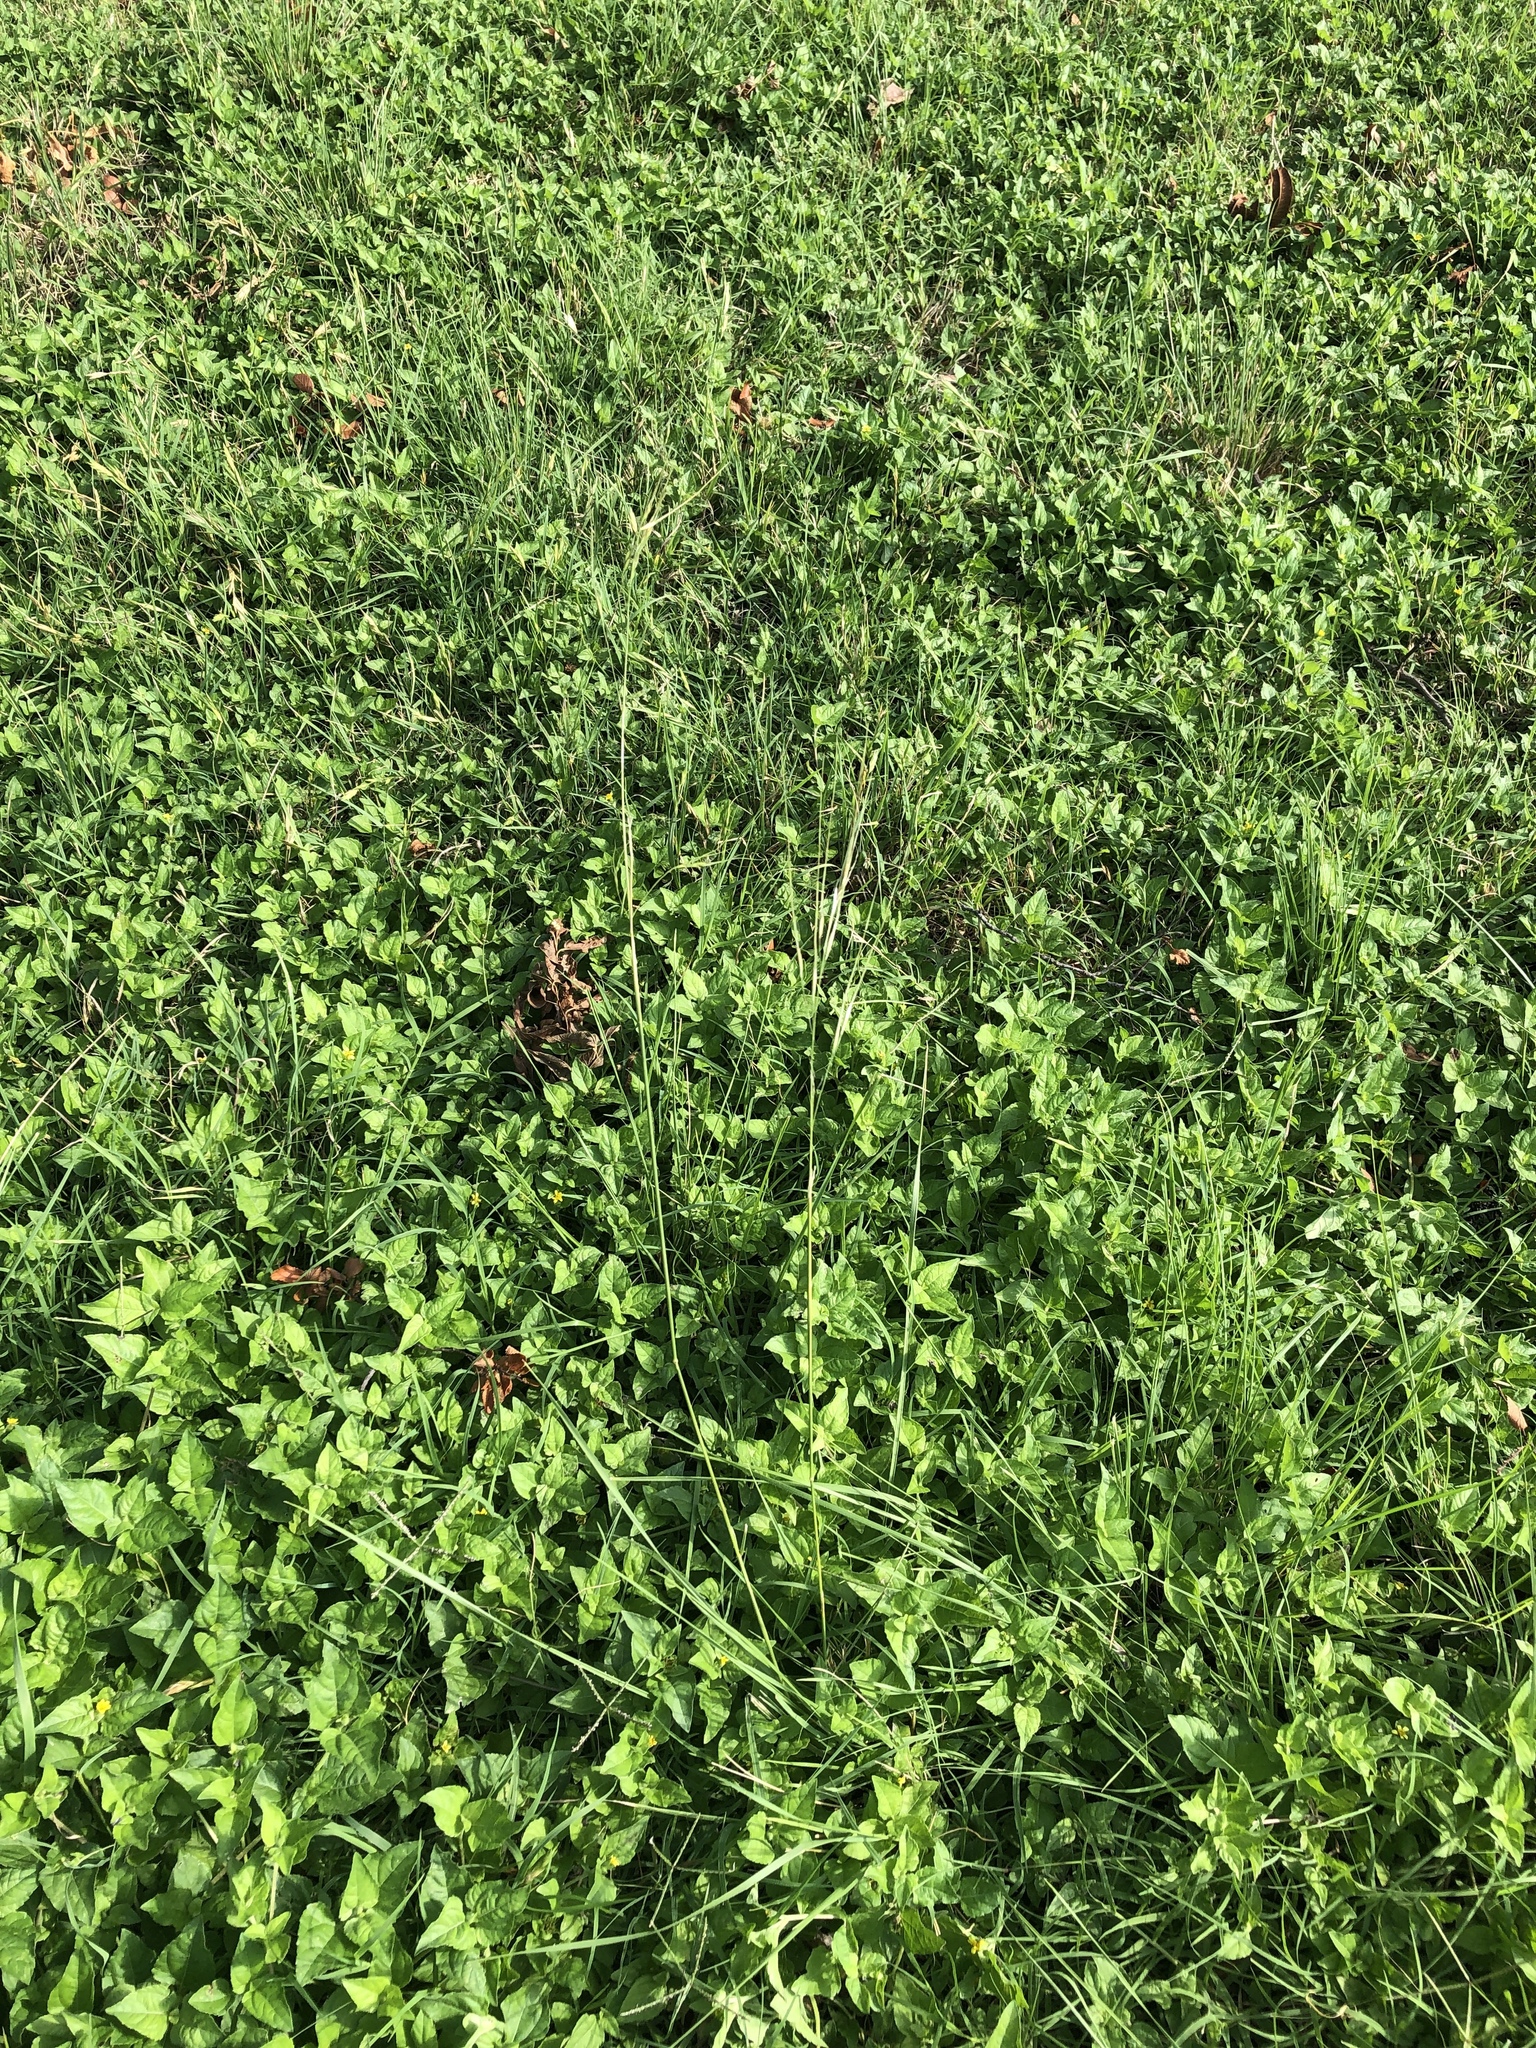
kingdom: Plantae
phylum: Tracheophyta
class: Liliopsida
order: Poales
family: Poaceae
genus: Nassella
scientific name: Nassella leucotricha
